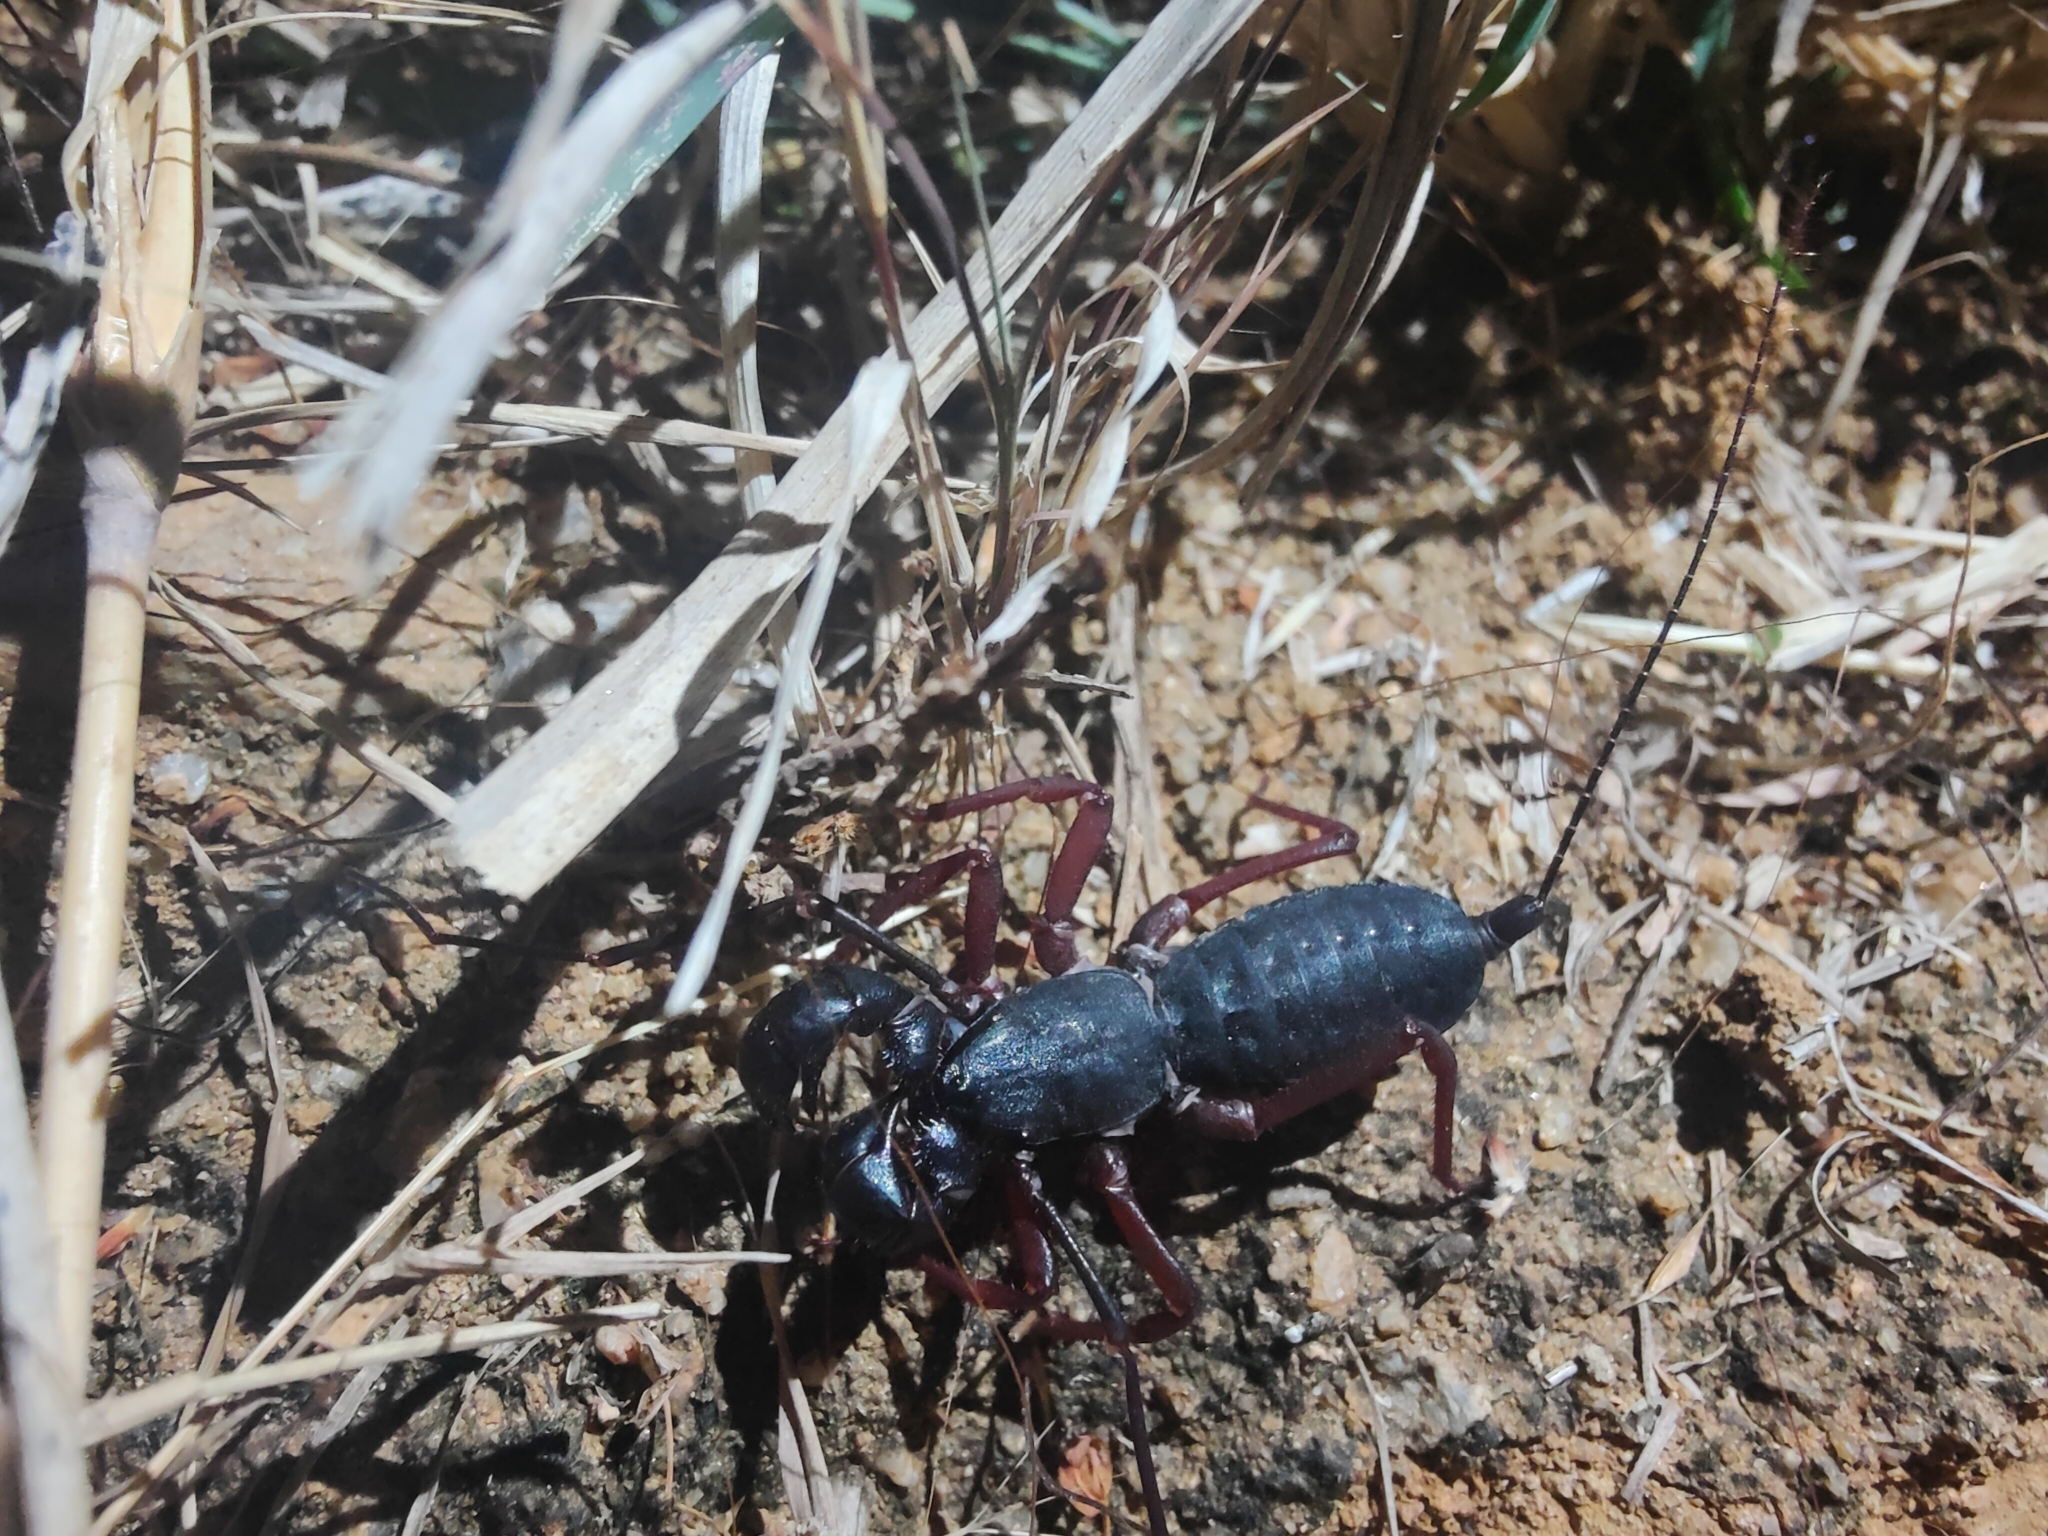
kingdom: Animalia
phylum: Arthropoda
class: Arachnida
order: Uropygi
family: Thelyphonidae
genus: Thelyphonus
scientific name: Thelyphonus sepiaris
